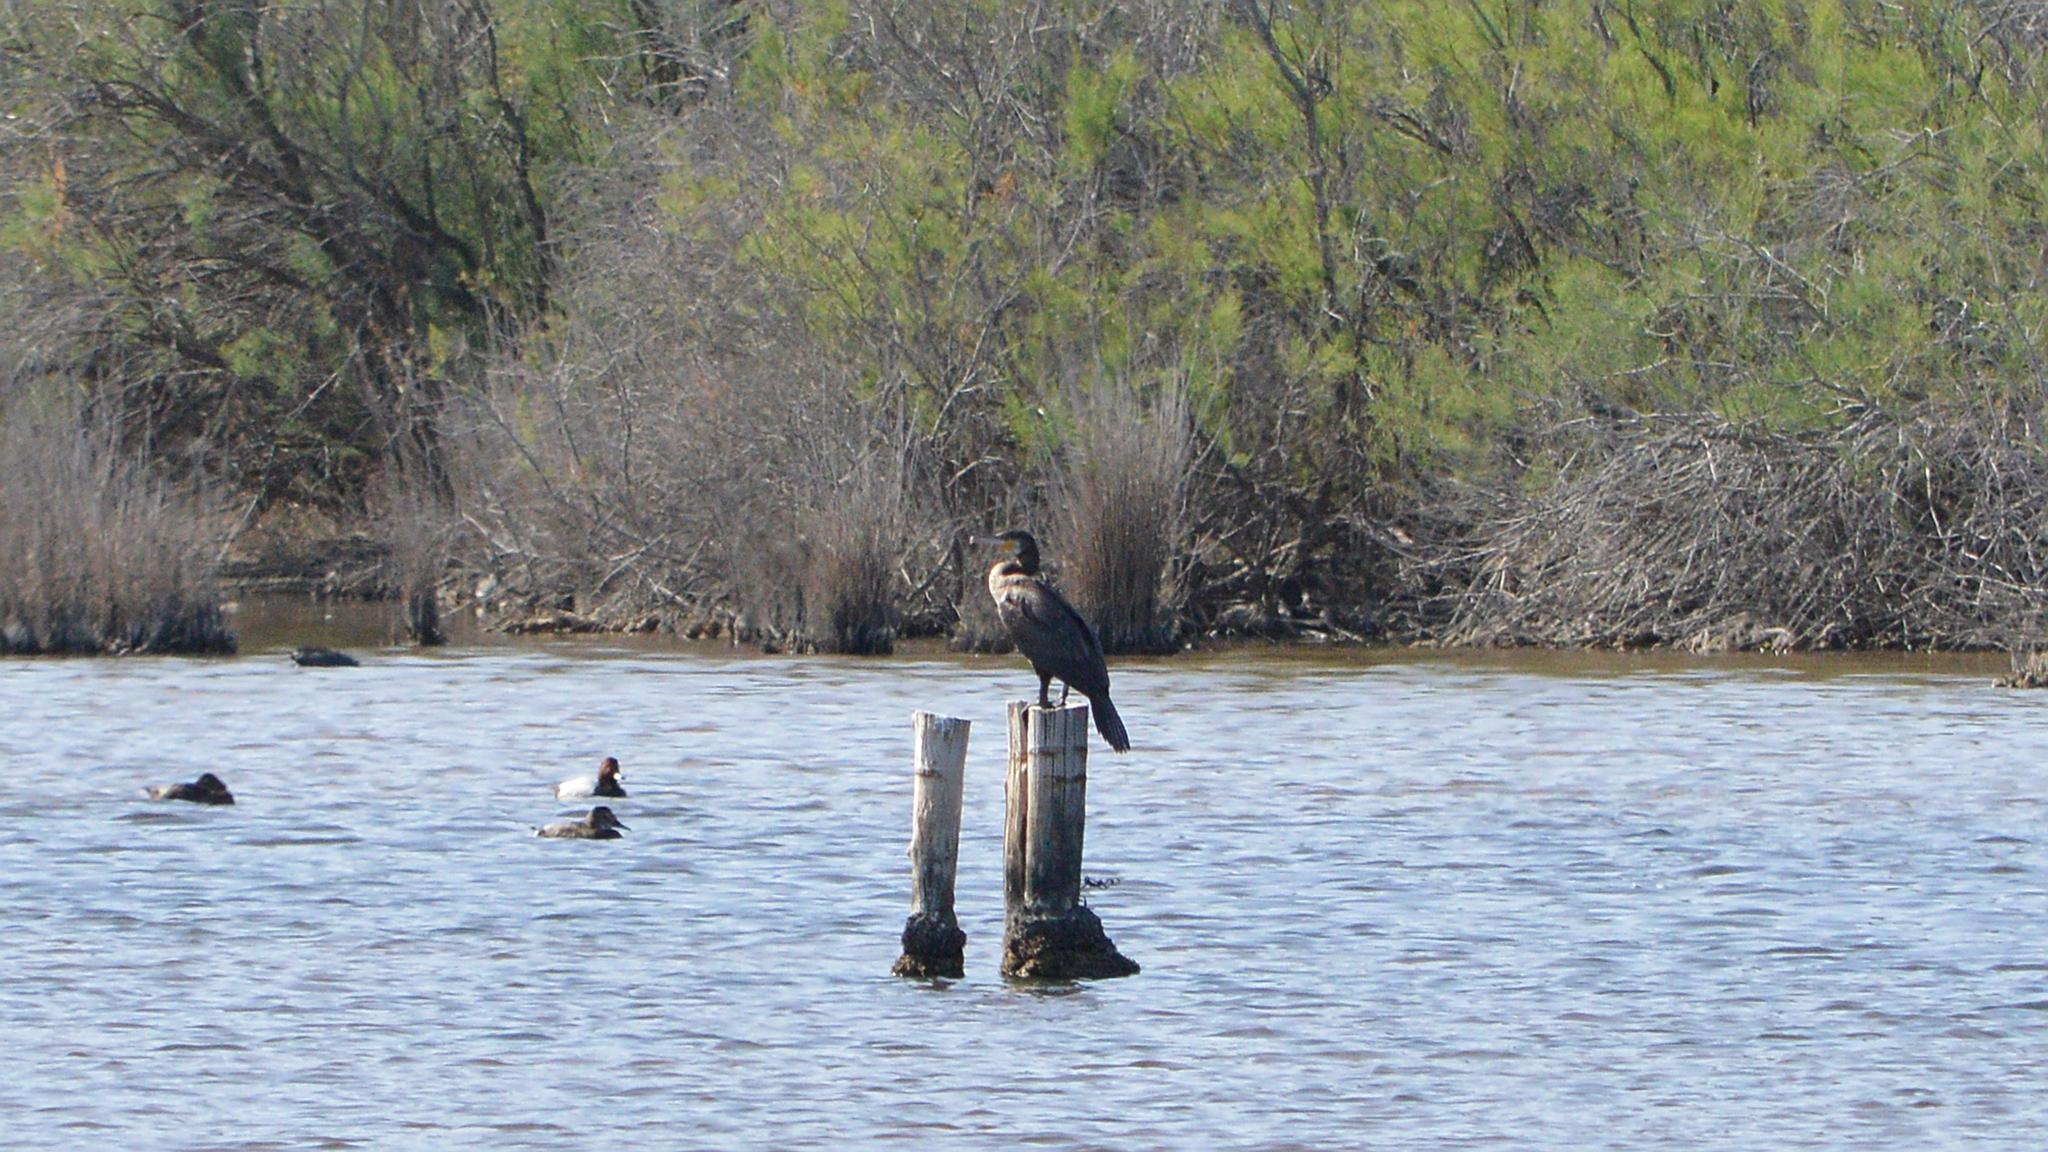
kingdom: Animalia
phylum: Chordata
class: Aves
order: Suliformes
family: Phalacrocoracidae
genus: Phalacrocorax
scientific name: Phalacrocorax carbo
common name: Great cormorant
